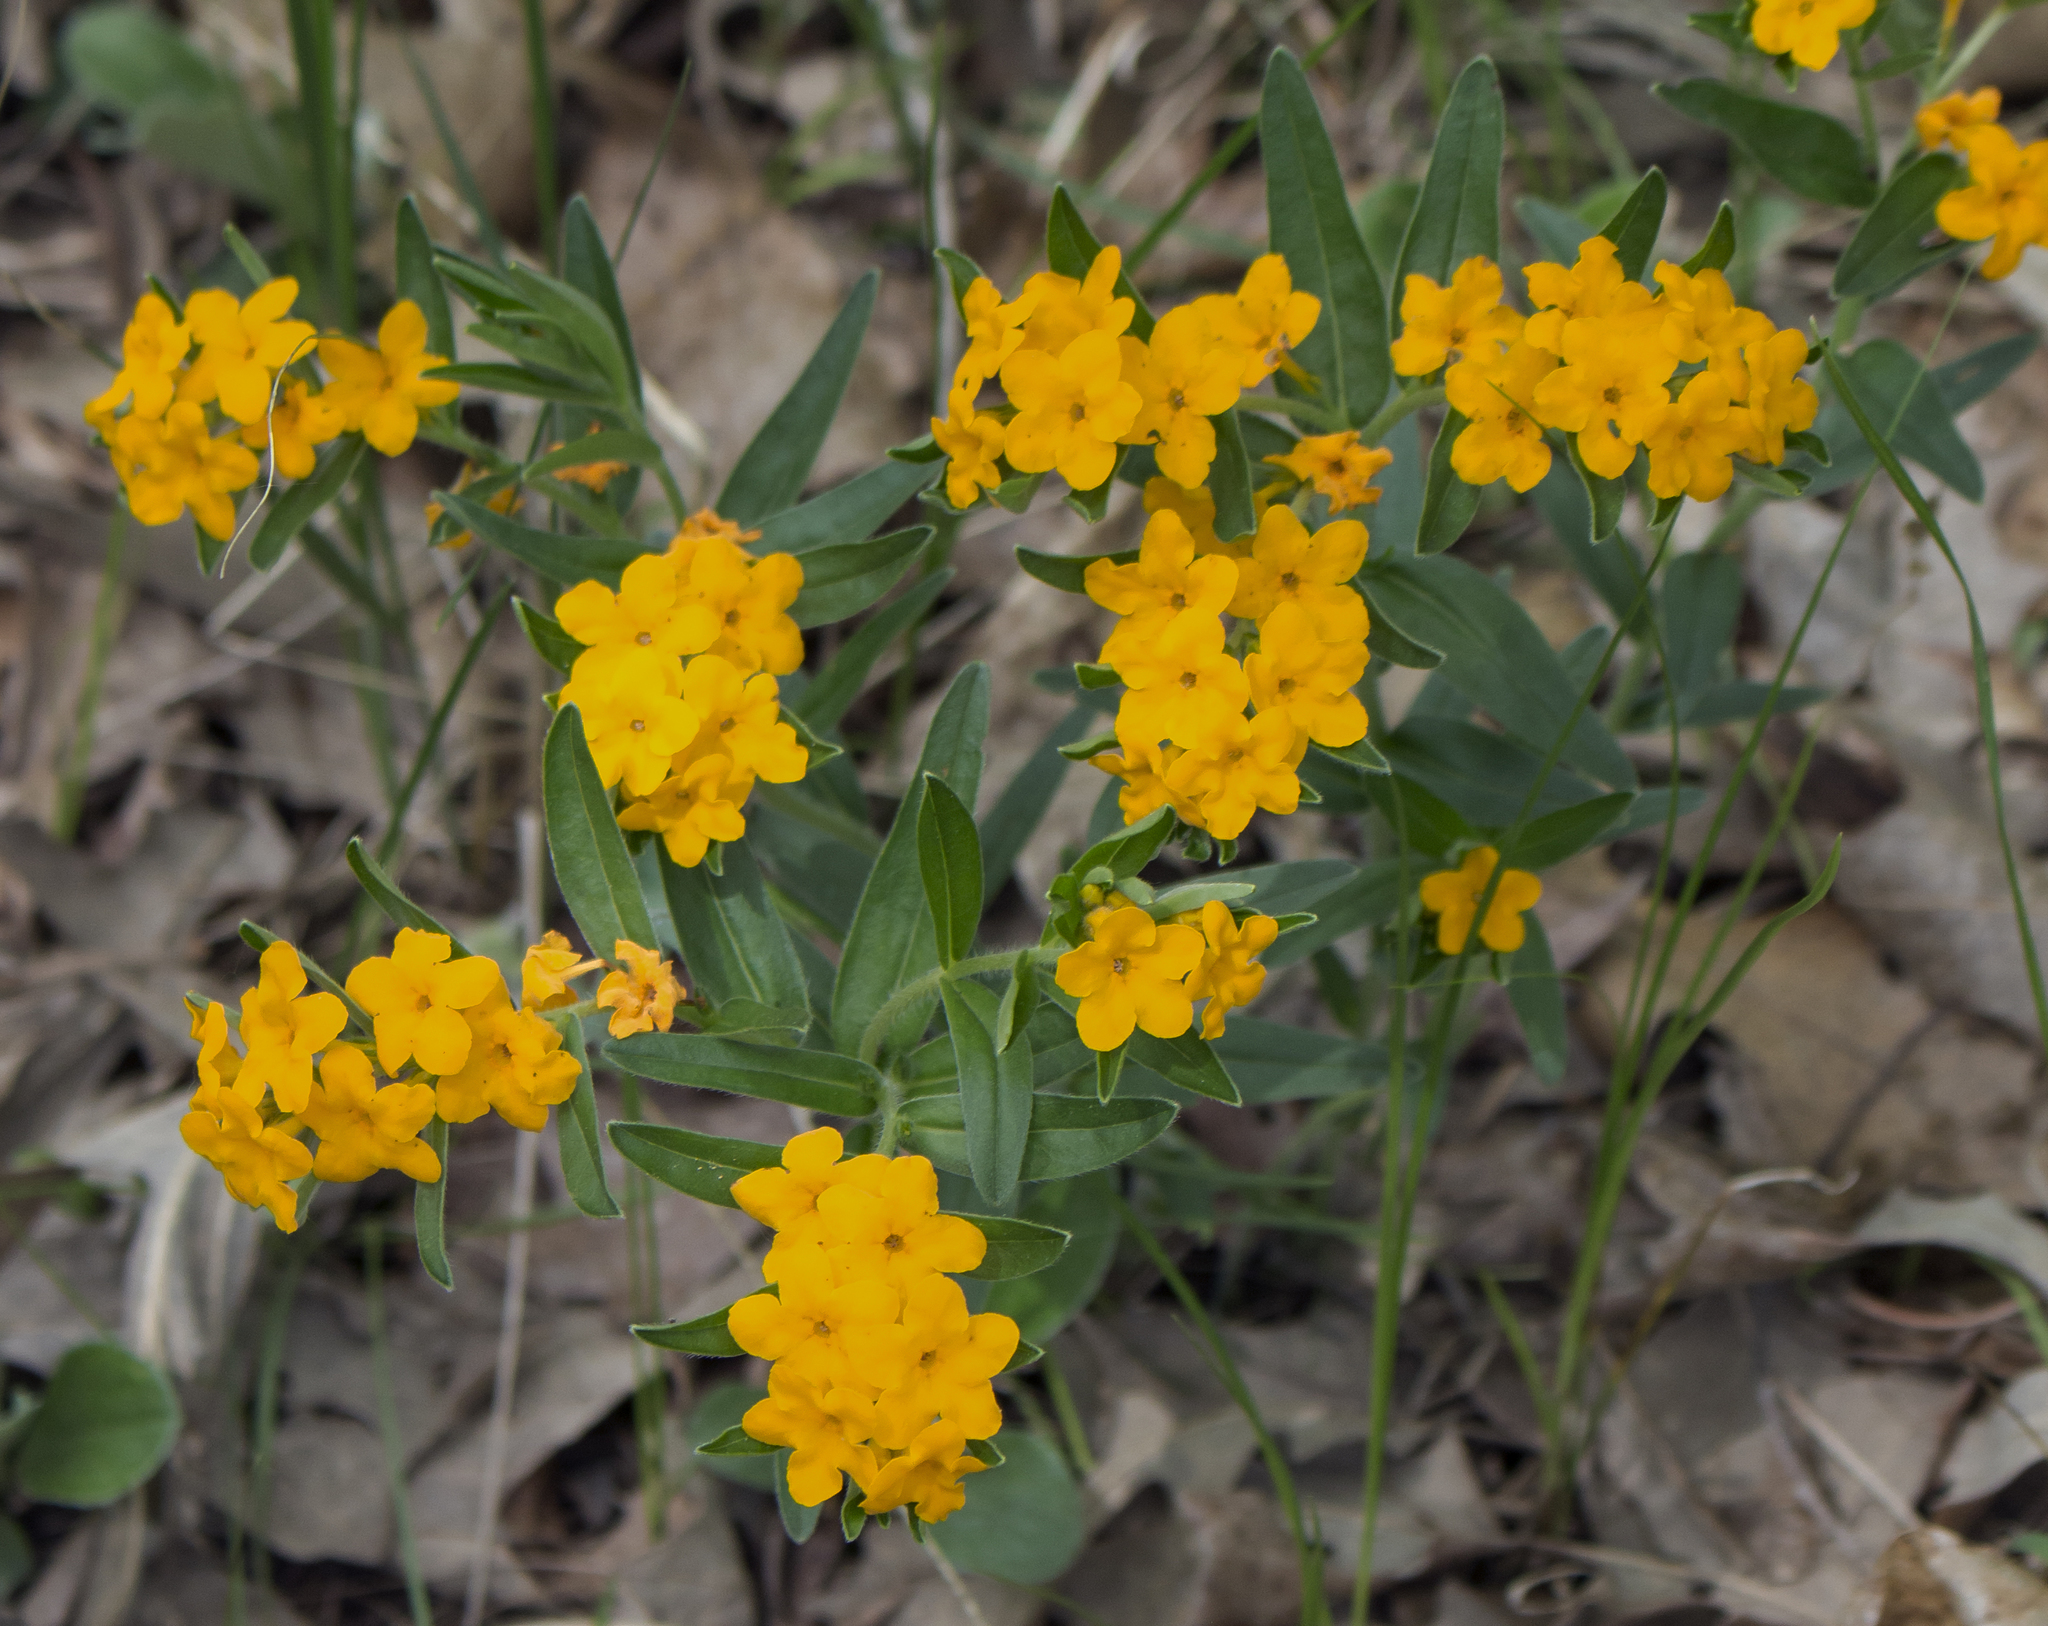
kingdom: Plantae
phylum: Tracheophyta
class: Magnoliopsida
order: Boraginales
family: Boraginaceae
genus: Lithospermum
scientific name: Lithospermum canescens
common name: Hoary puccoon
